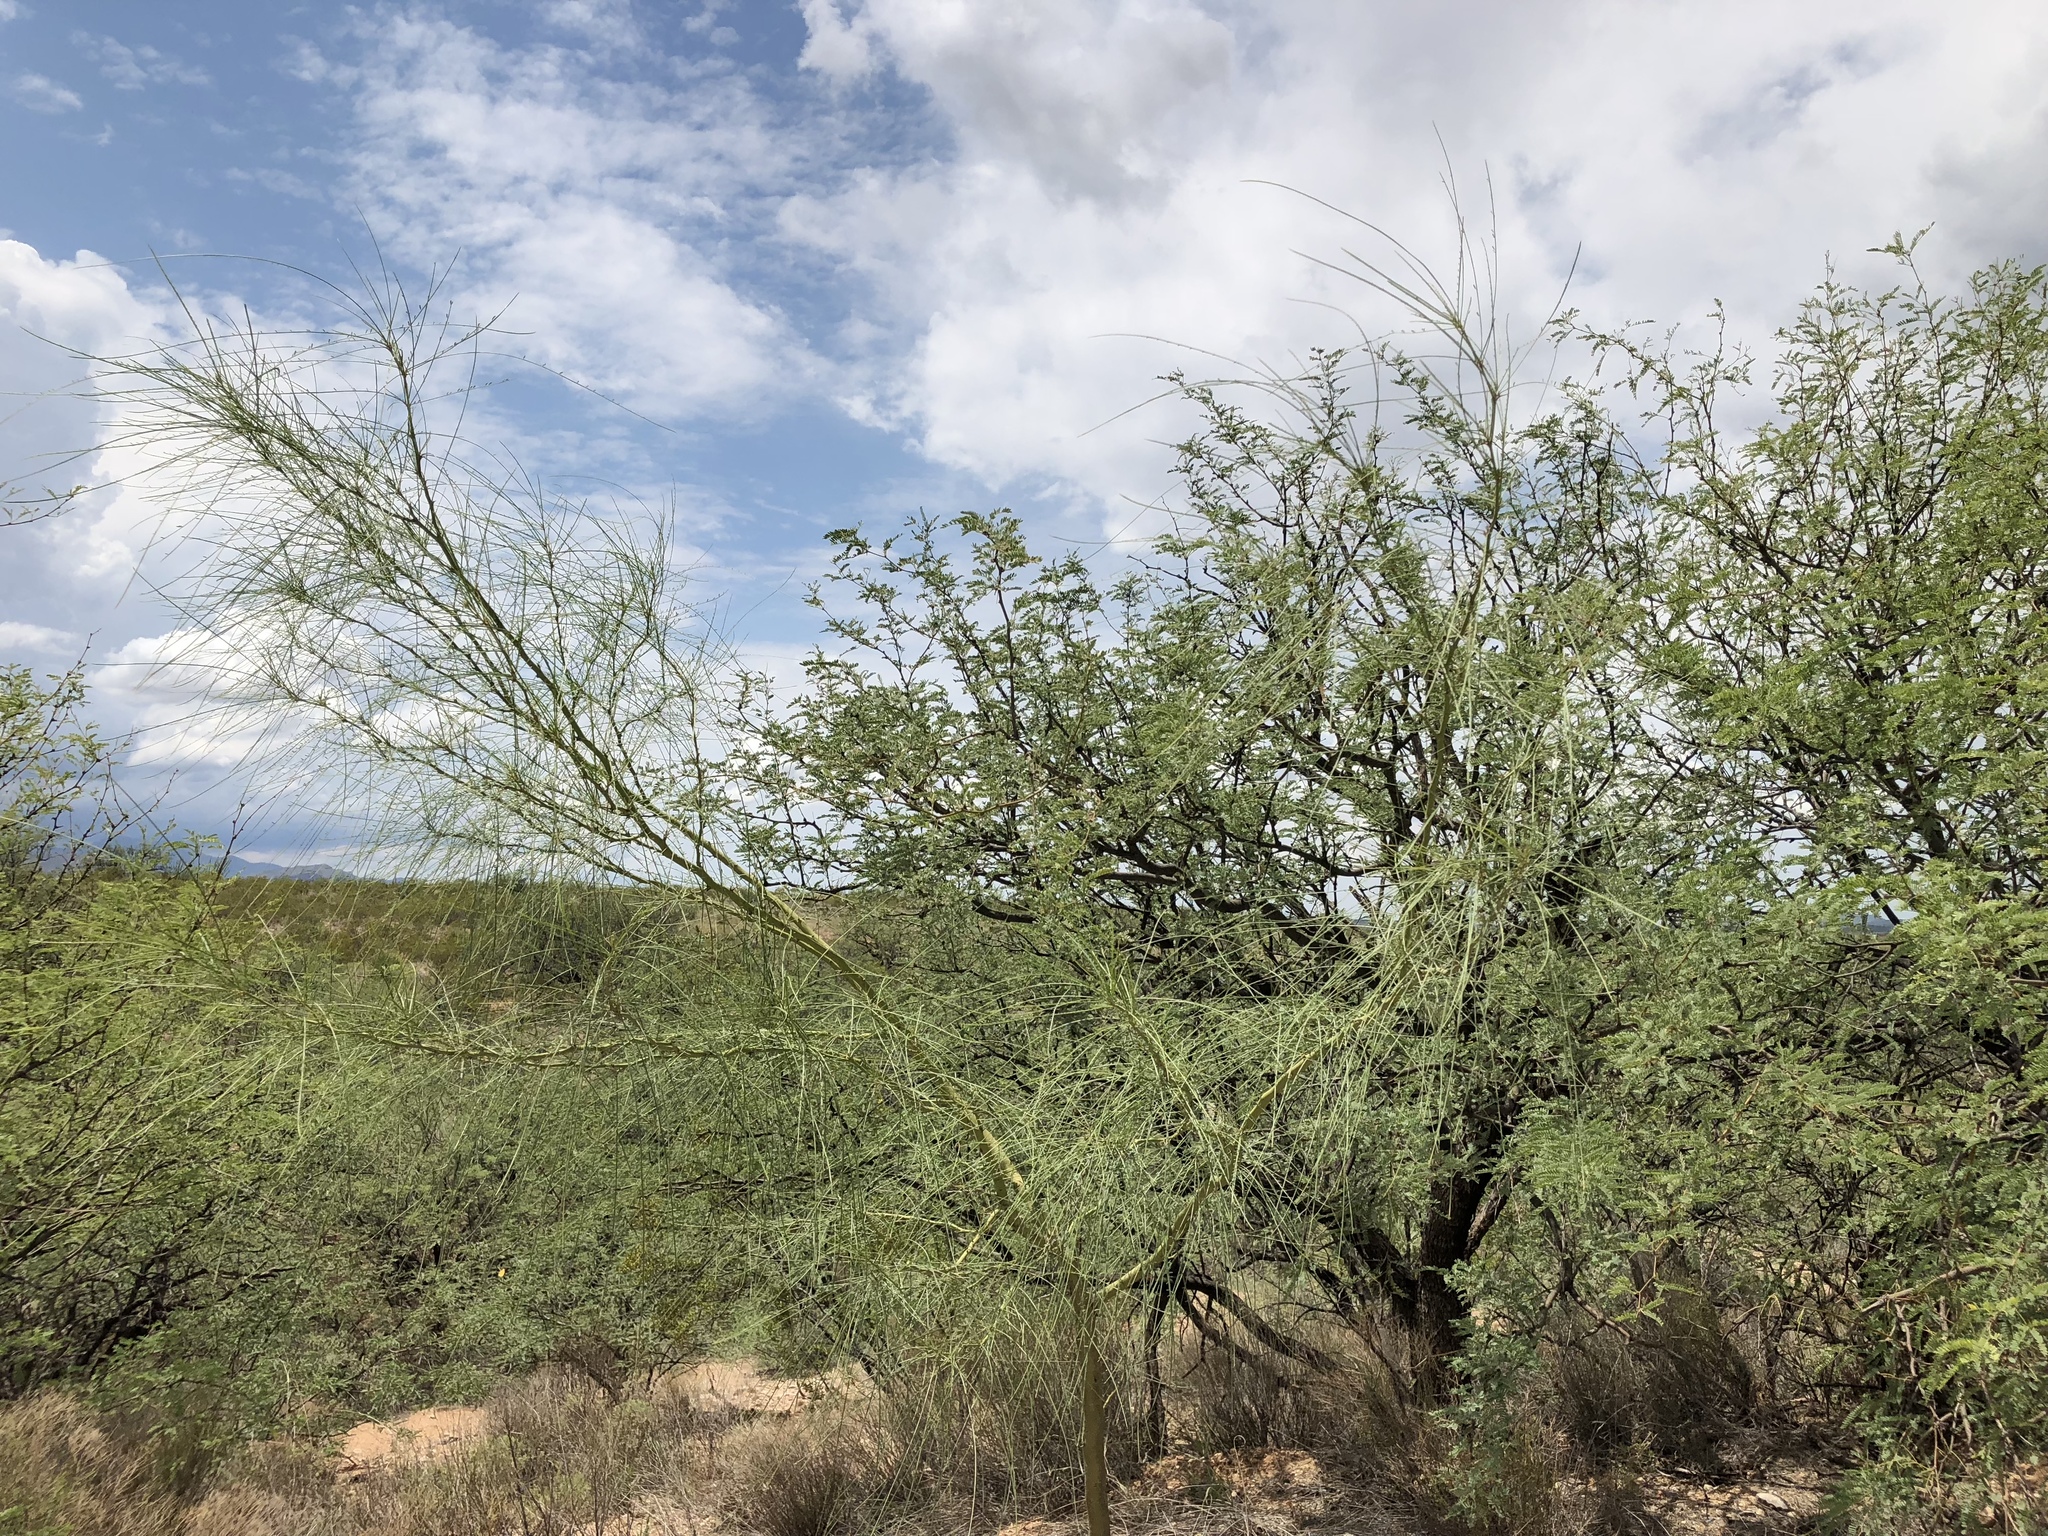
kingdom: Plantae
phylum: Tracheophyta
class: Magnoliopsida
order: Fabales
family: Fabaceae
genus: Parkinsonia
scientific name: Parkinsonia aculeata
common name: Jerusalem thorn
